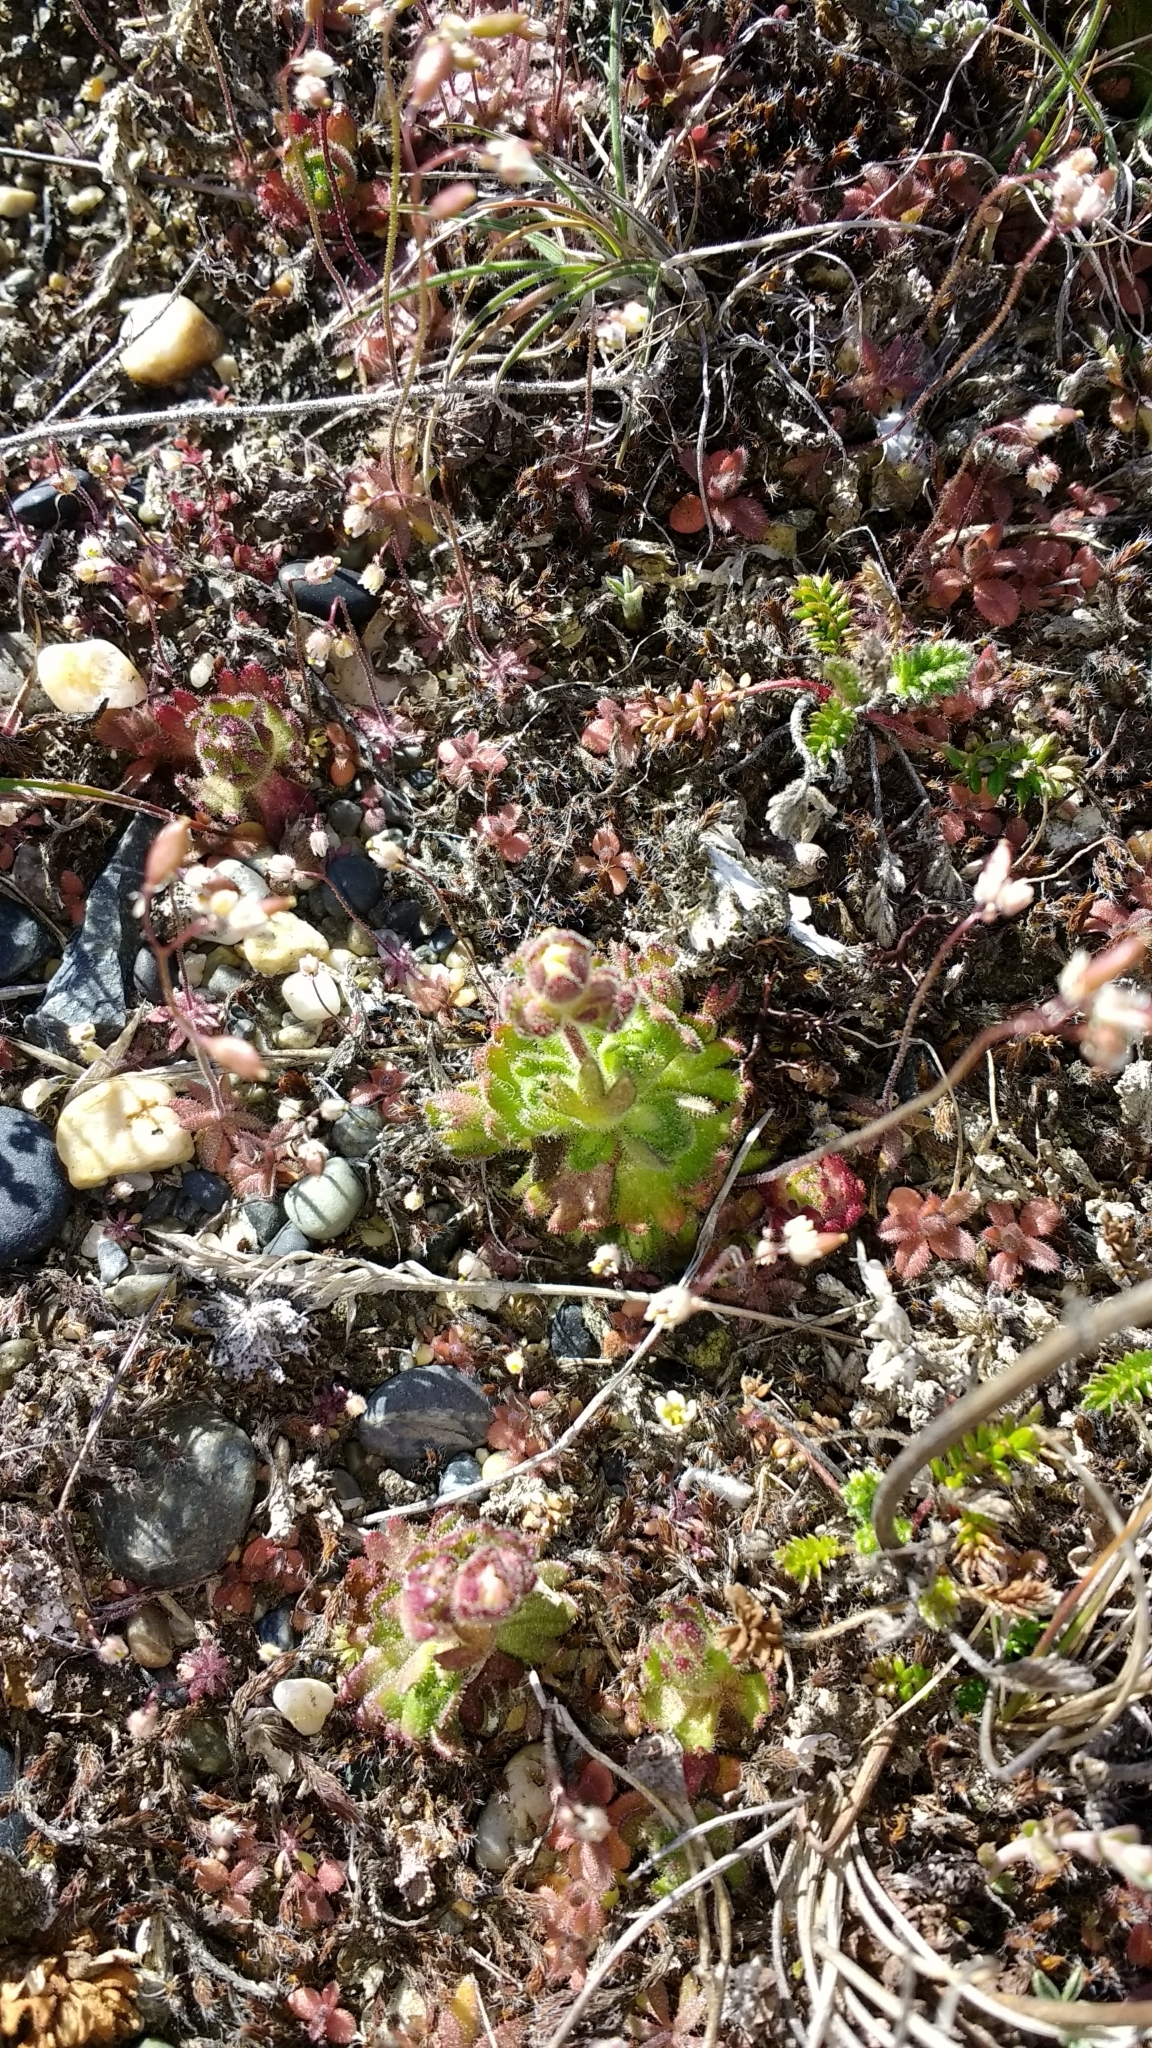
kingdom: Plantae
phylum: Tracheophyta
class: Magnoliopsida
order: Saxifragales
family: Saxifragaceae
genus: Saxifraga
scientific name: Saxifraga magellanica
